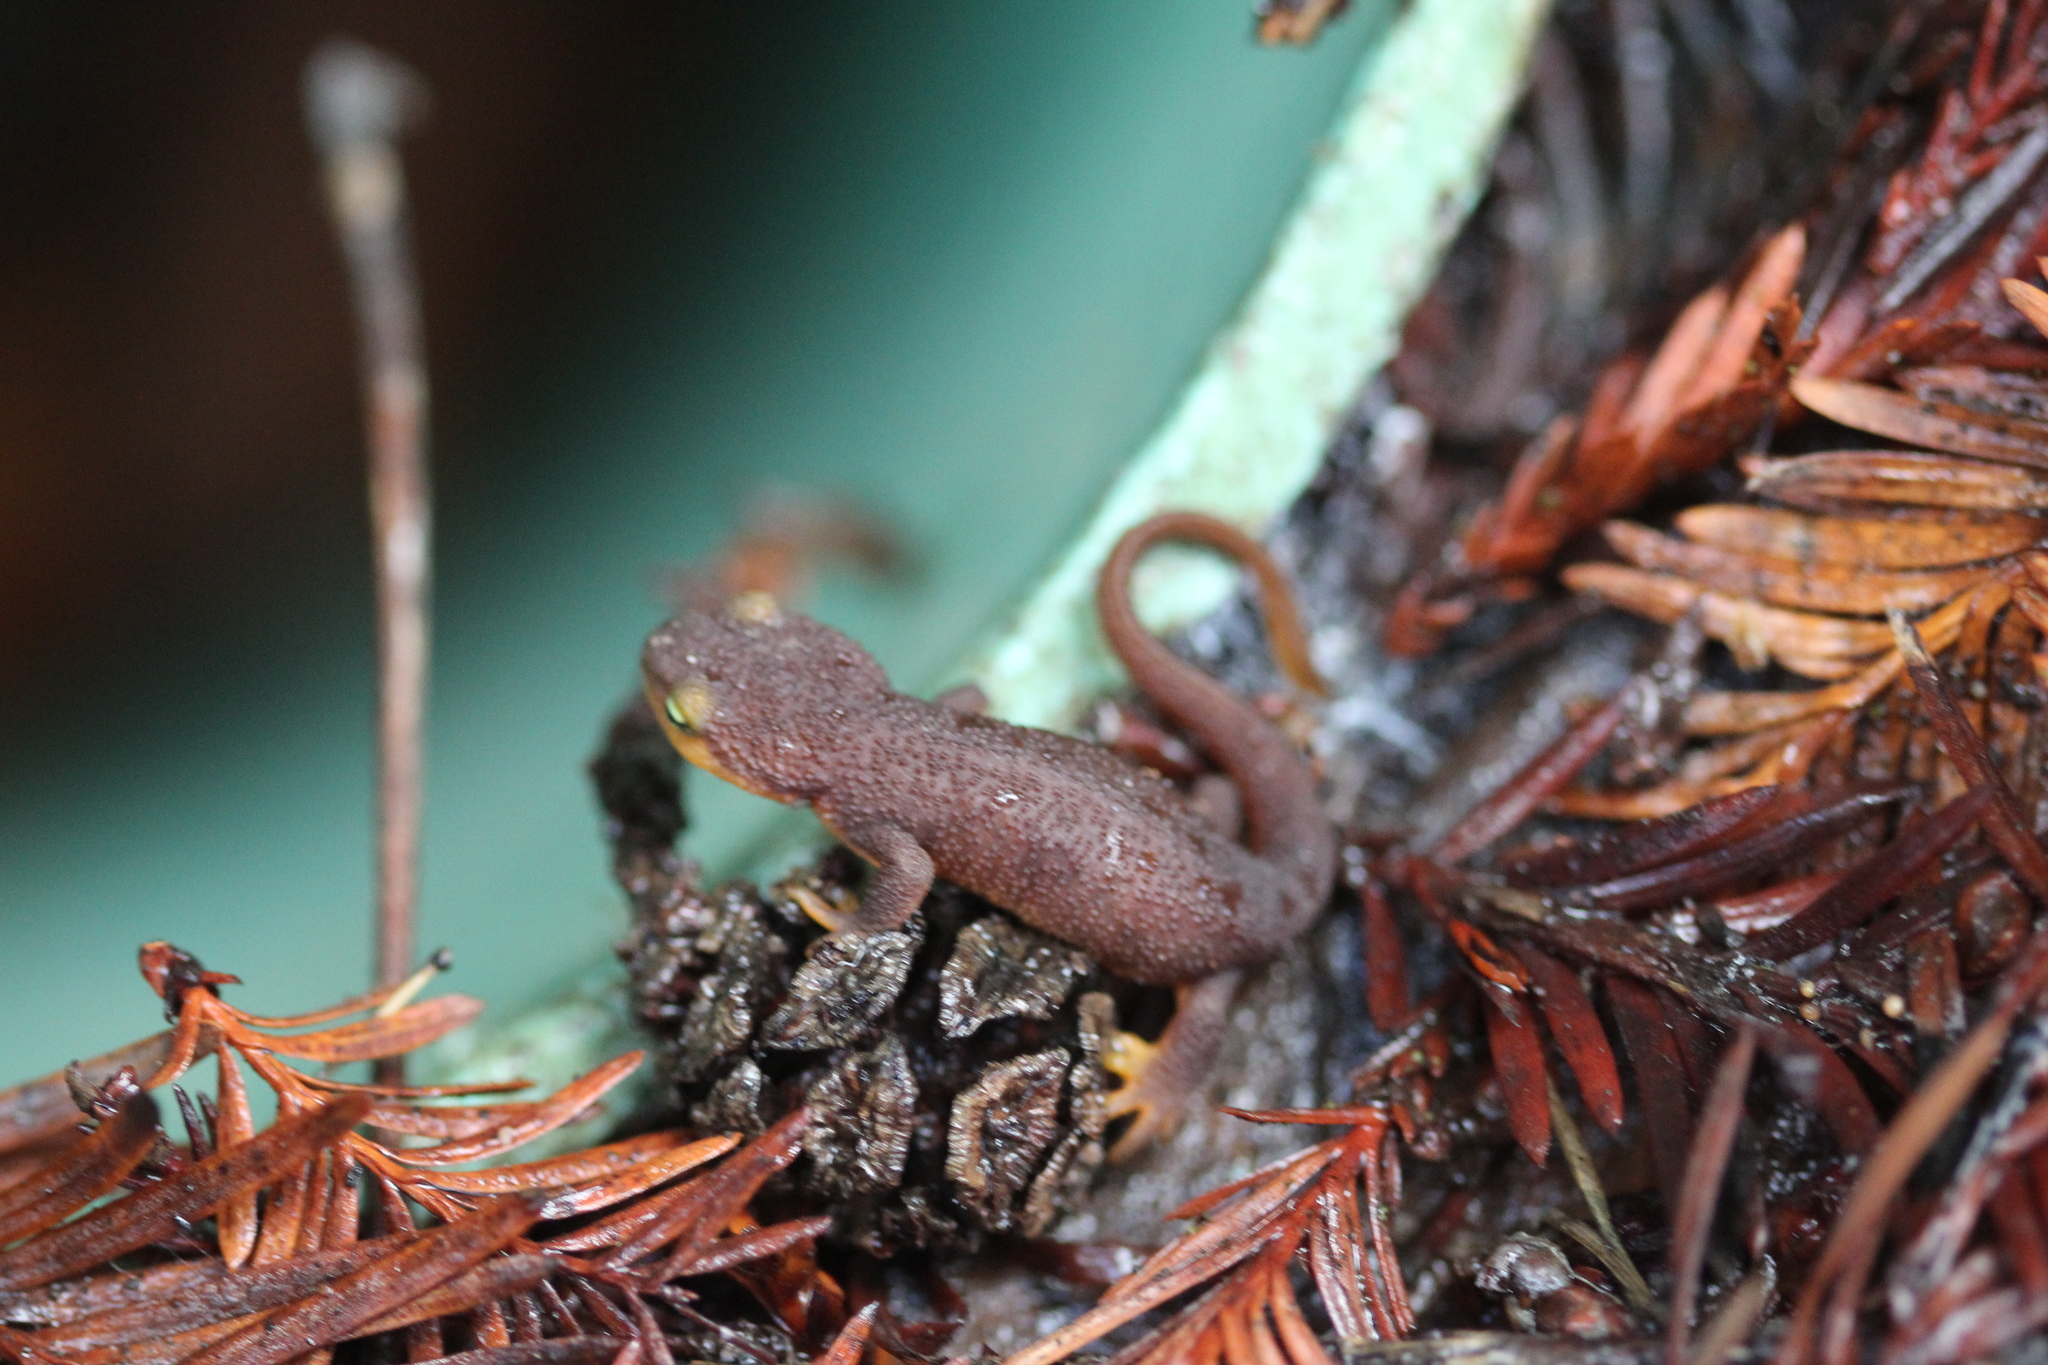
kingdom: Animalia
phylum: Chordata
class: Amphibia
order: Caudata
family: Salamandridae
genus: Taricha
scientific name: Taricha torosa
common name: California newt
